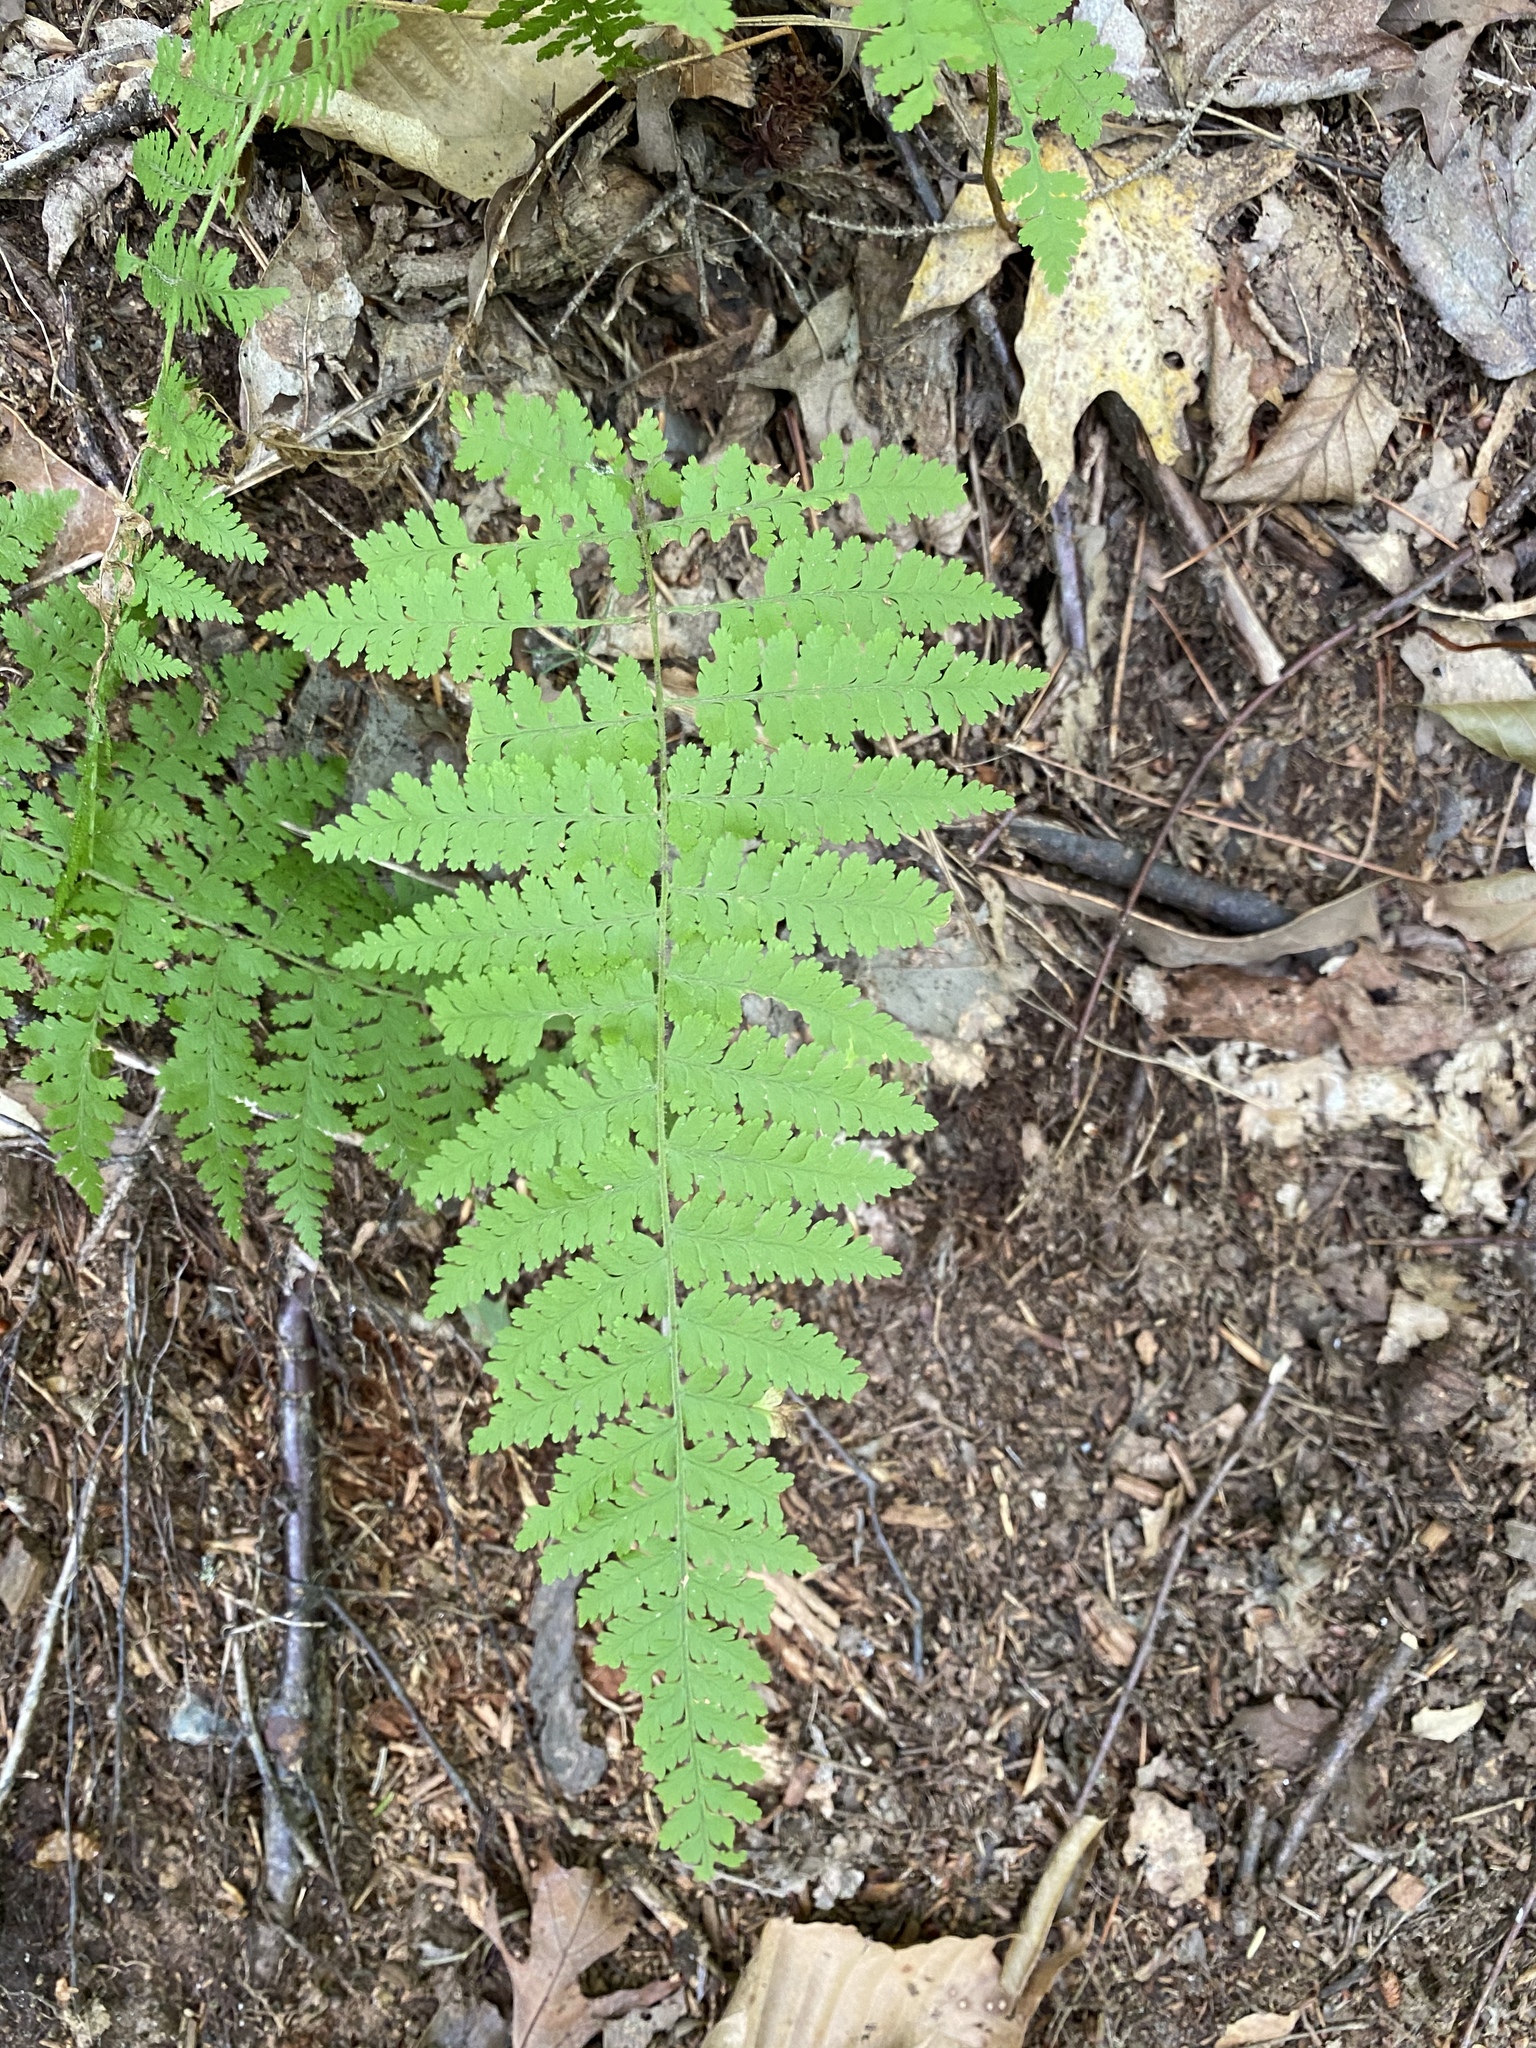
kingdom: Plantae
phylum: Tracheophyta
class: Polypodiopsida
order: Polypodiales
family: Dennstaedtiaceae
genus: Sitobolium
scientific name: Sitobolium punctilobum
